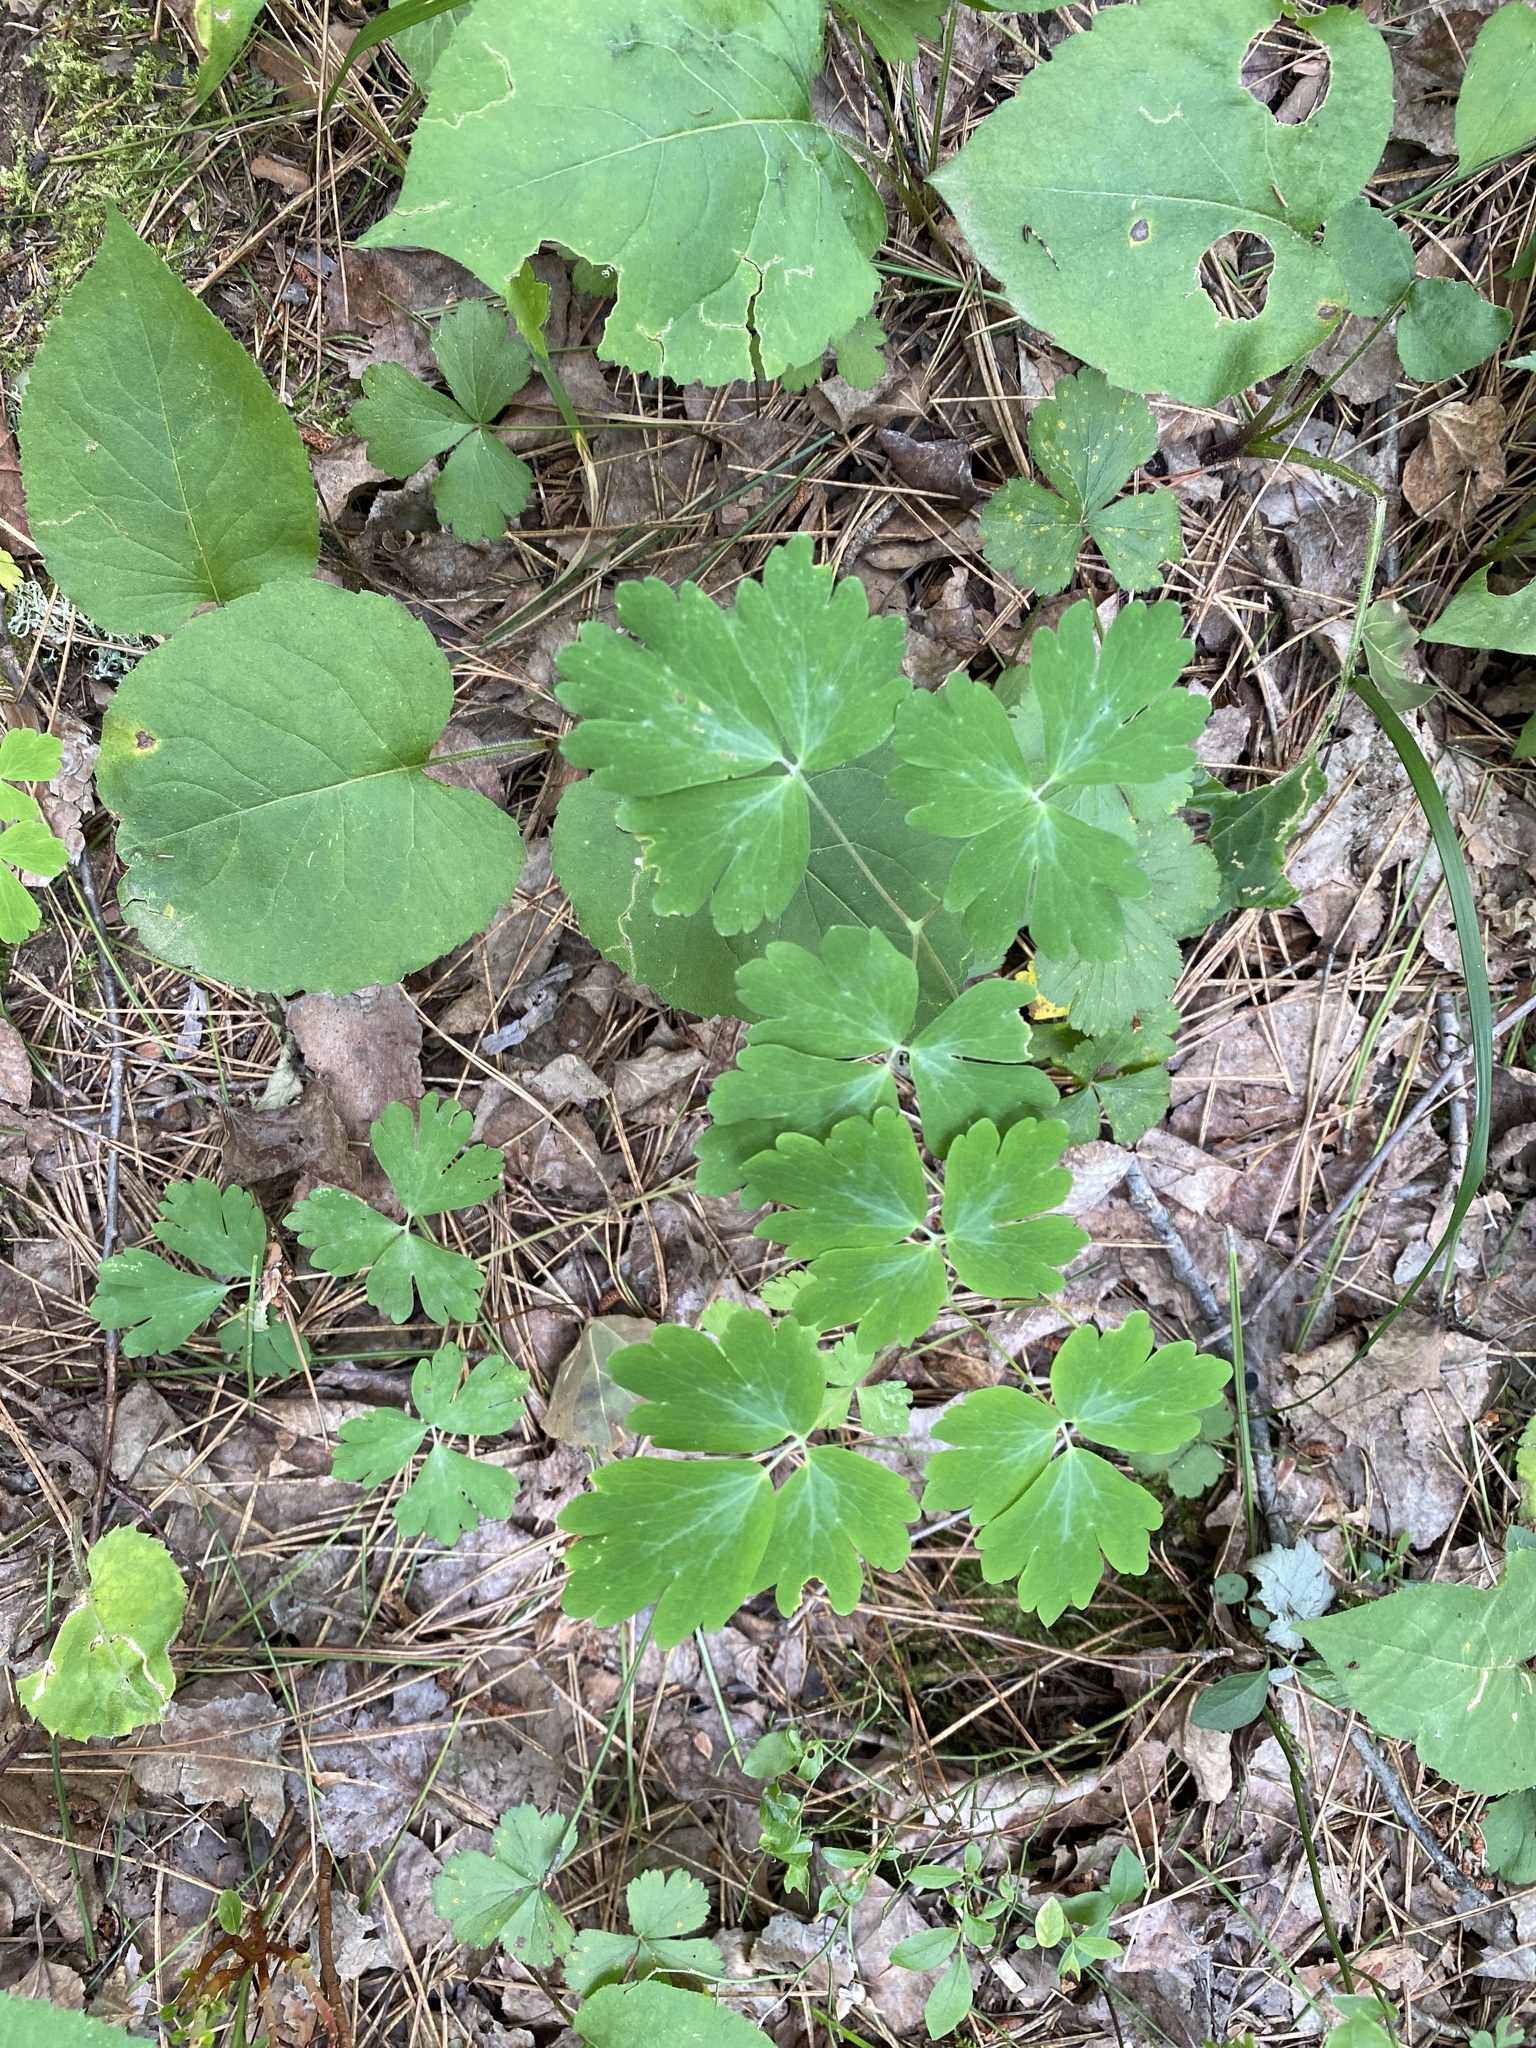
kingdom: Plantae
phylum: Tracheophyta
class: Magnoliopsida
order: Ranunculales
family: Ranunculaceae
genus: Aquilegia
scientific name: Aquilegia canadensis
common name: American columbine
